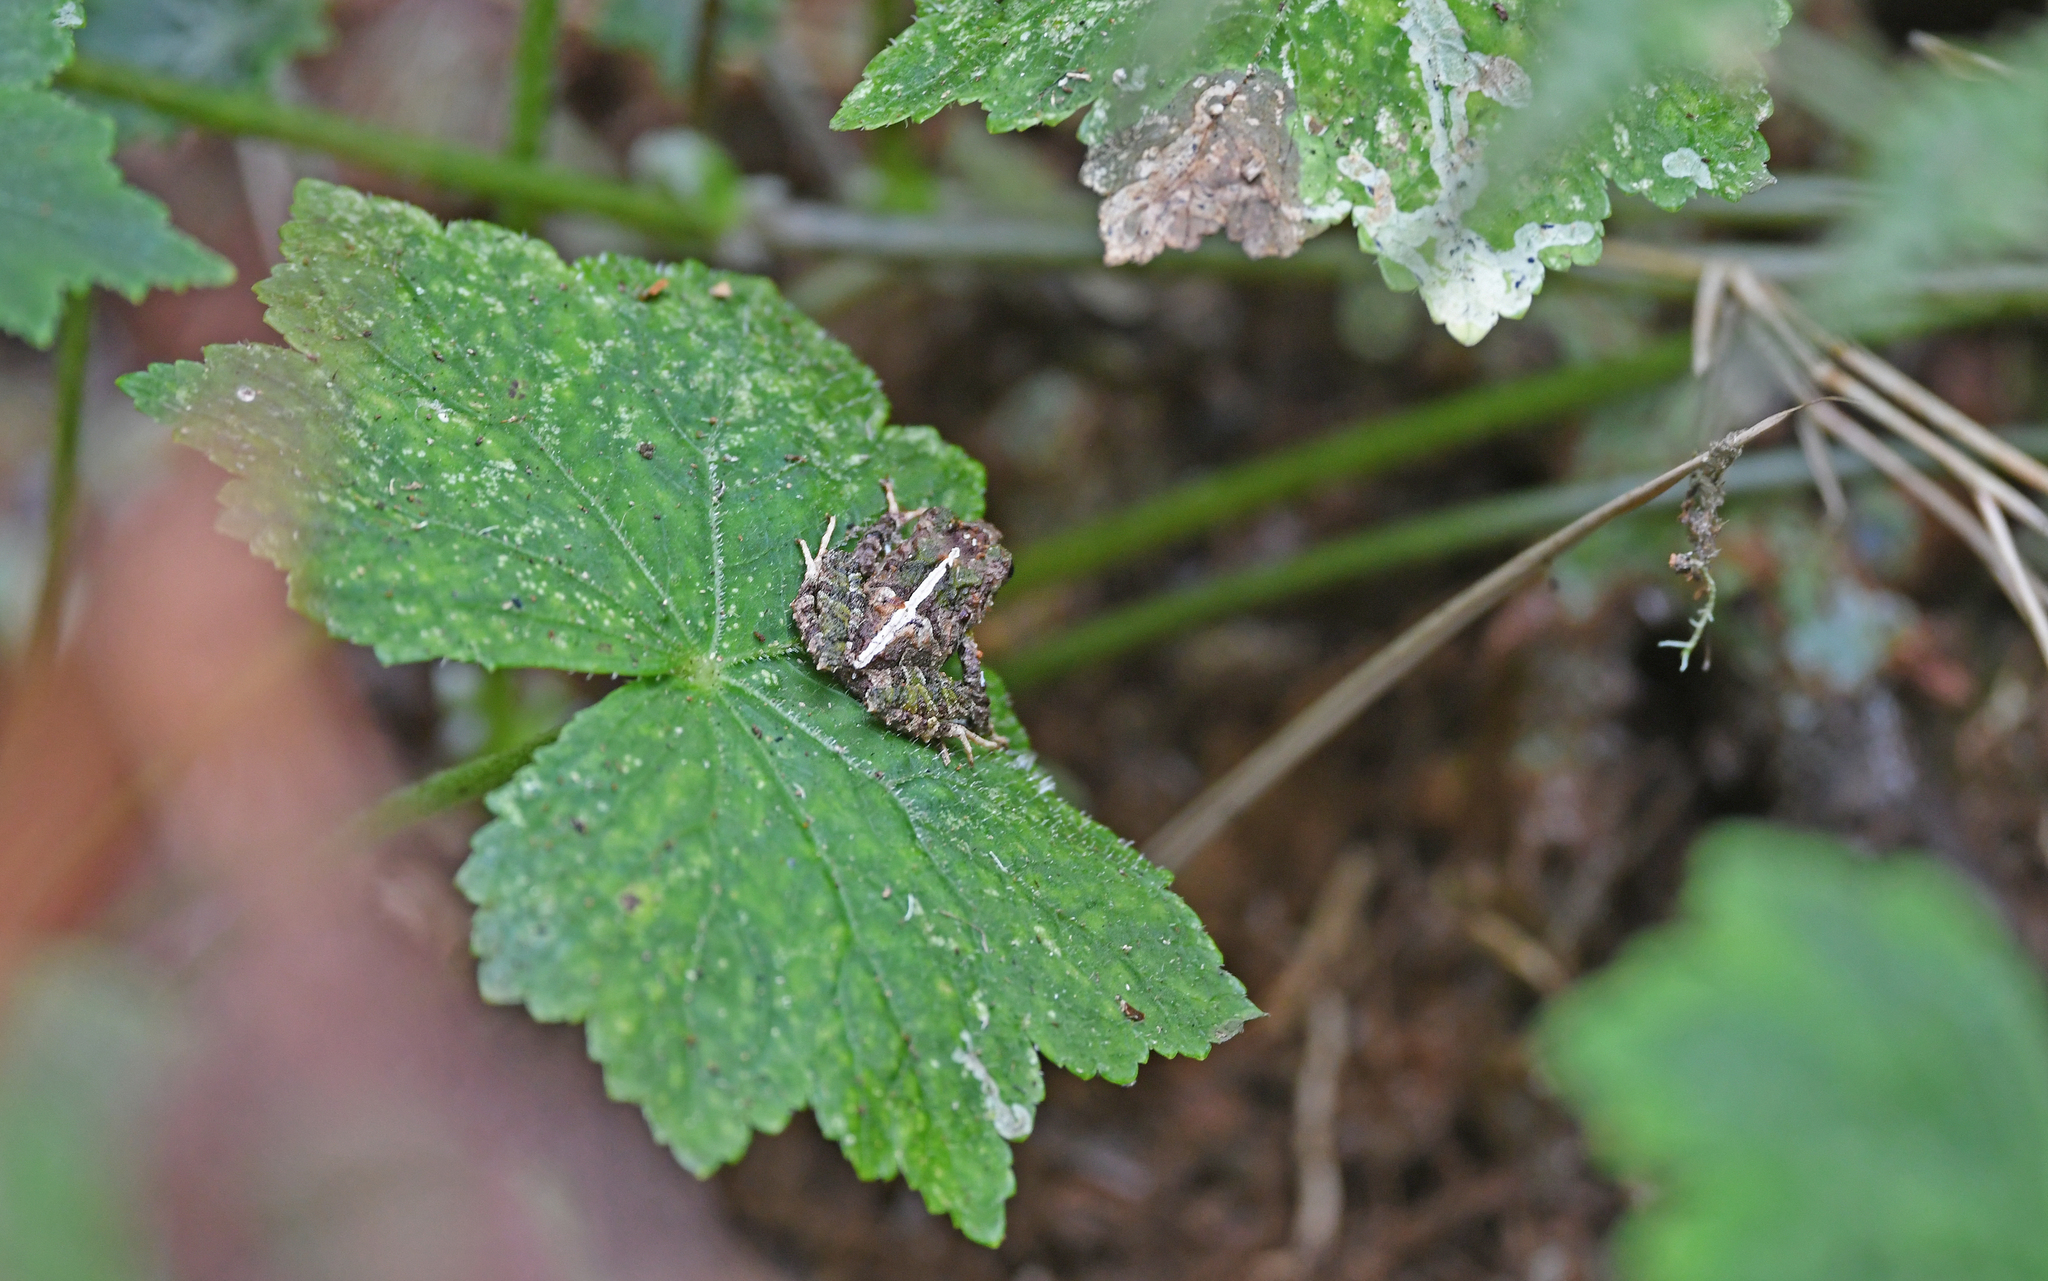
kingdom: Animalia
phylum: Chordata
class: Amphibia
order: Anura
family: Craugastoridae
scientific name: Craugastoridae
